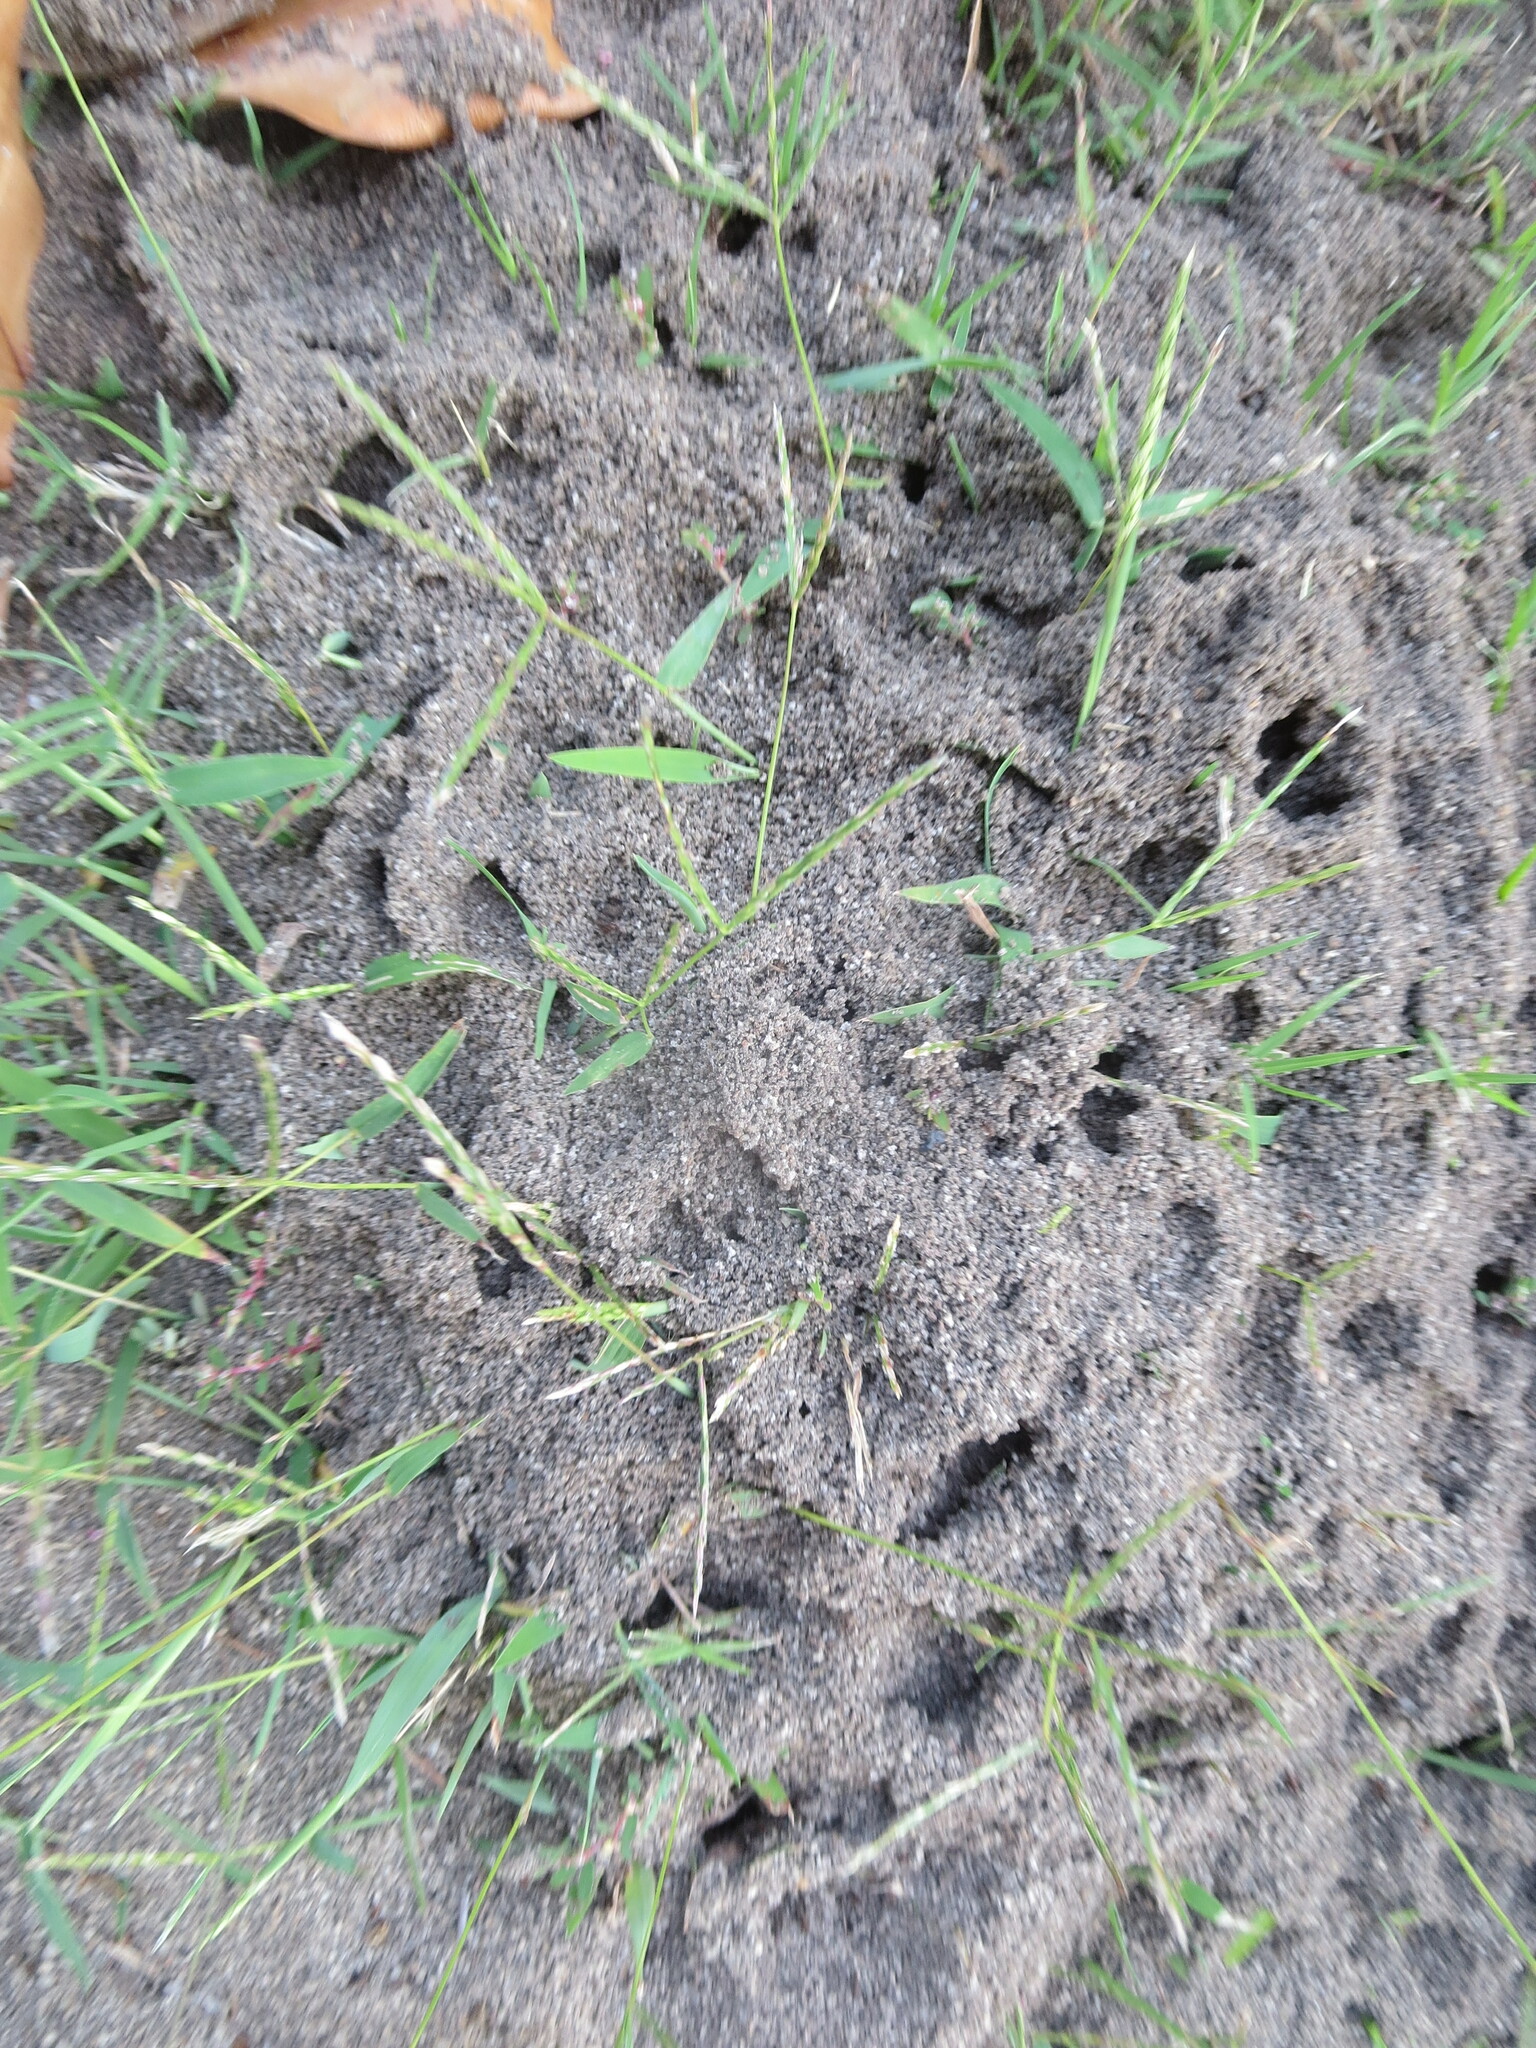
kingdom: Animalia
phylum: Arthropoda
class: Insecta
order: Hymenoptera
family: Formicidae
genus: Solenopsis
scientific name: Solenopsis invicta
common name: Red imported fire ant
